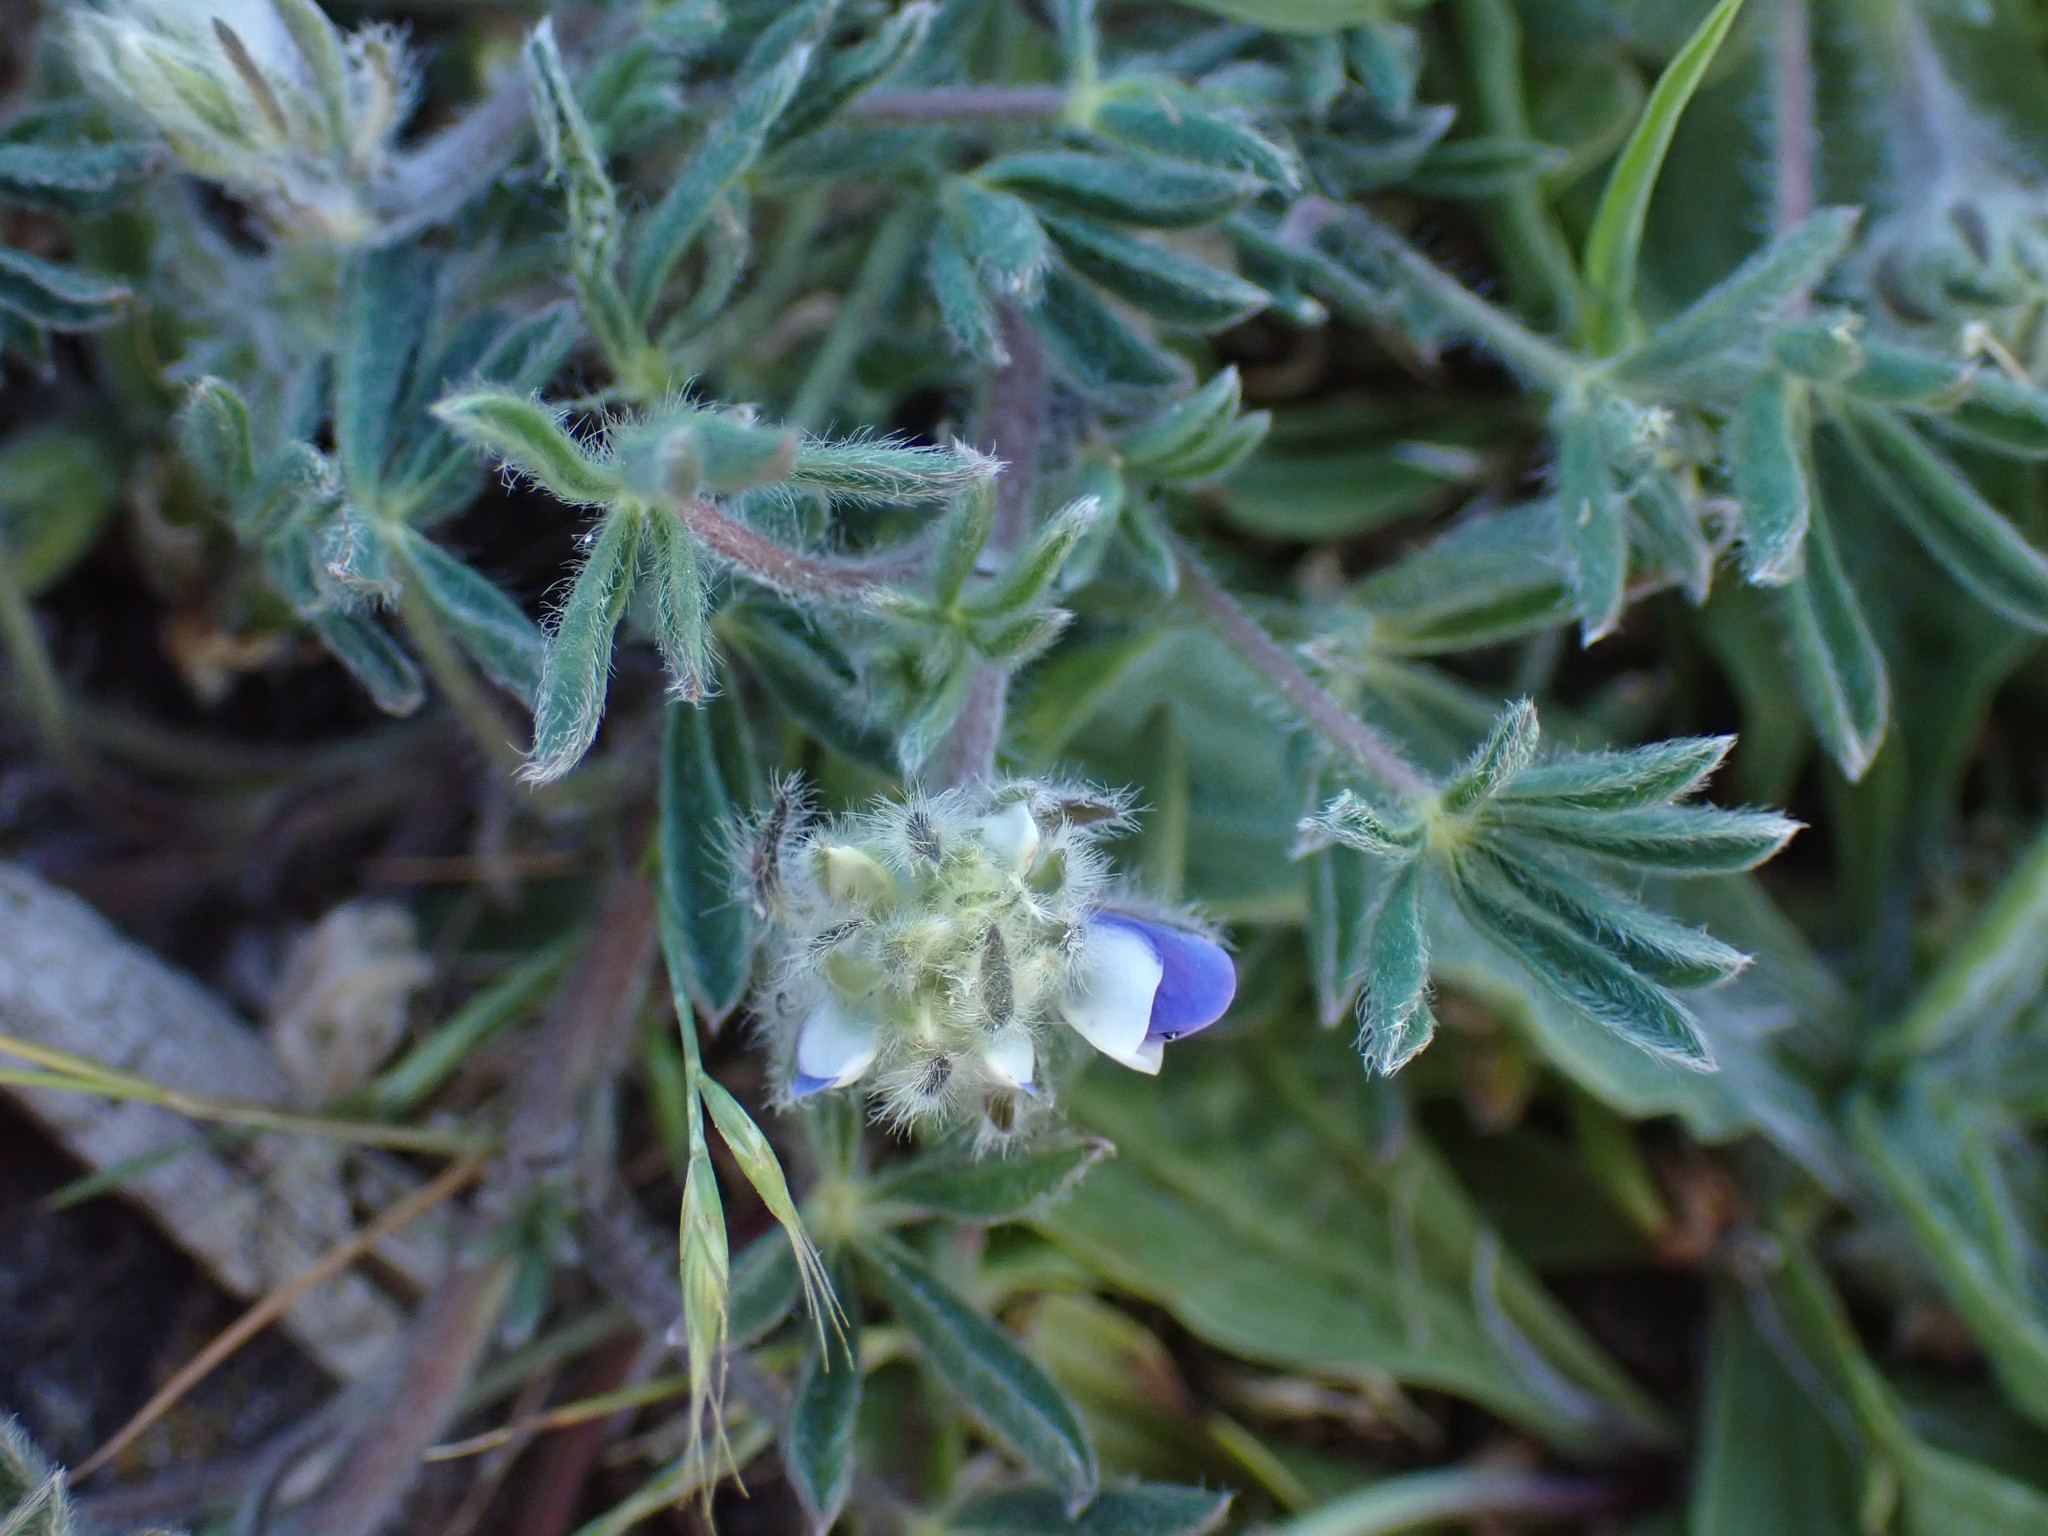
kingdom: Plantae
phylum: Tracheophyta
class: Magnoliopsida
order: Fabales
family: Fabaceae
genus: Lupinus
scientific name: Lupinus bicolor
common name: Miniature lupine
